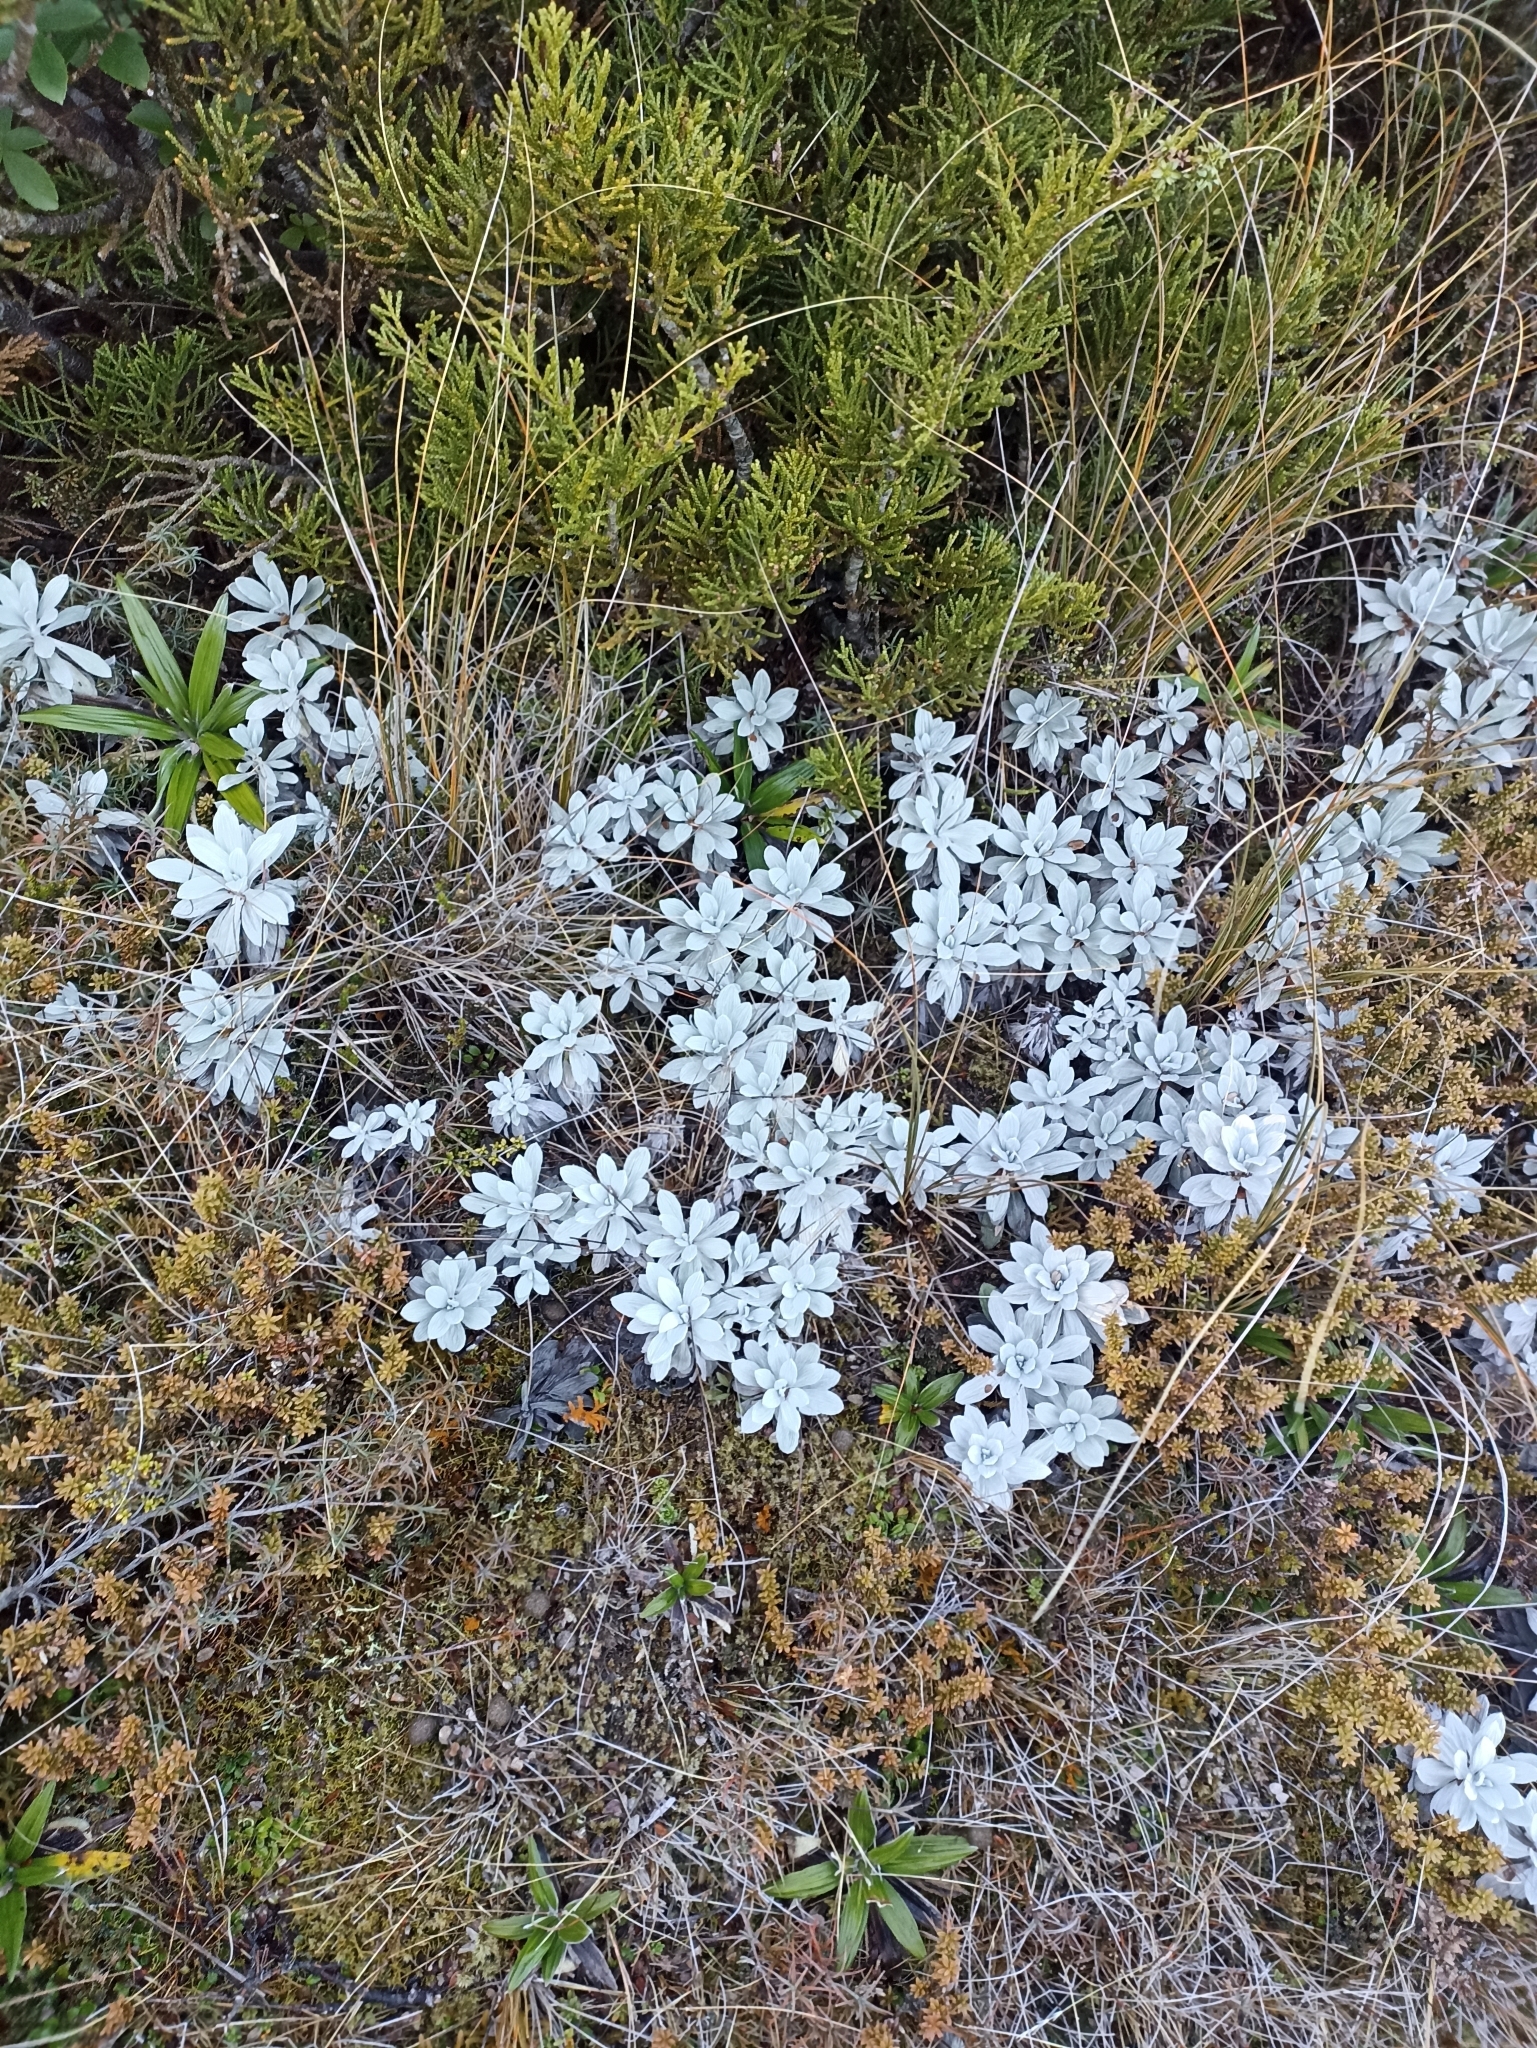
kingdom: Plantae
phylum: Tracheophyta
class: Magnoliopsida
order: Asterales
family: Asteraceae
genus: Celmisia
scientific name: Celmisia incana
